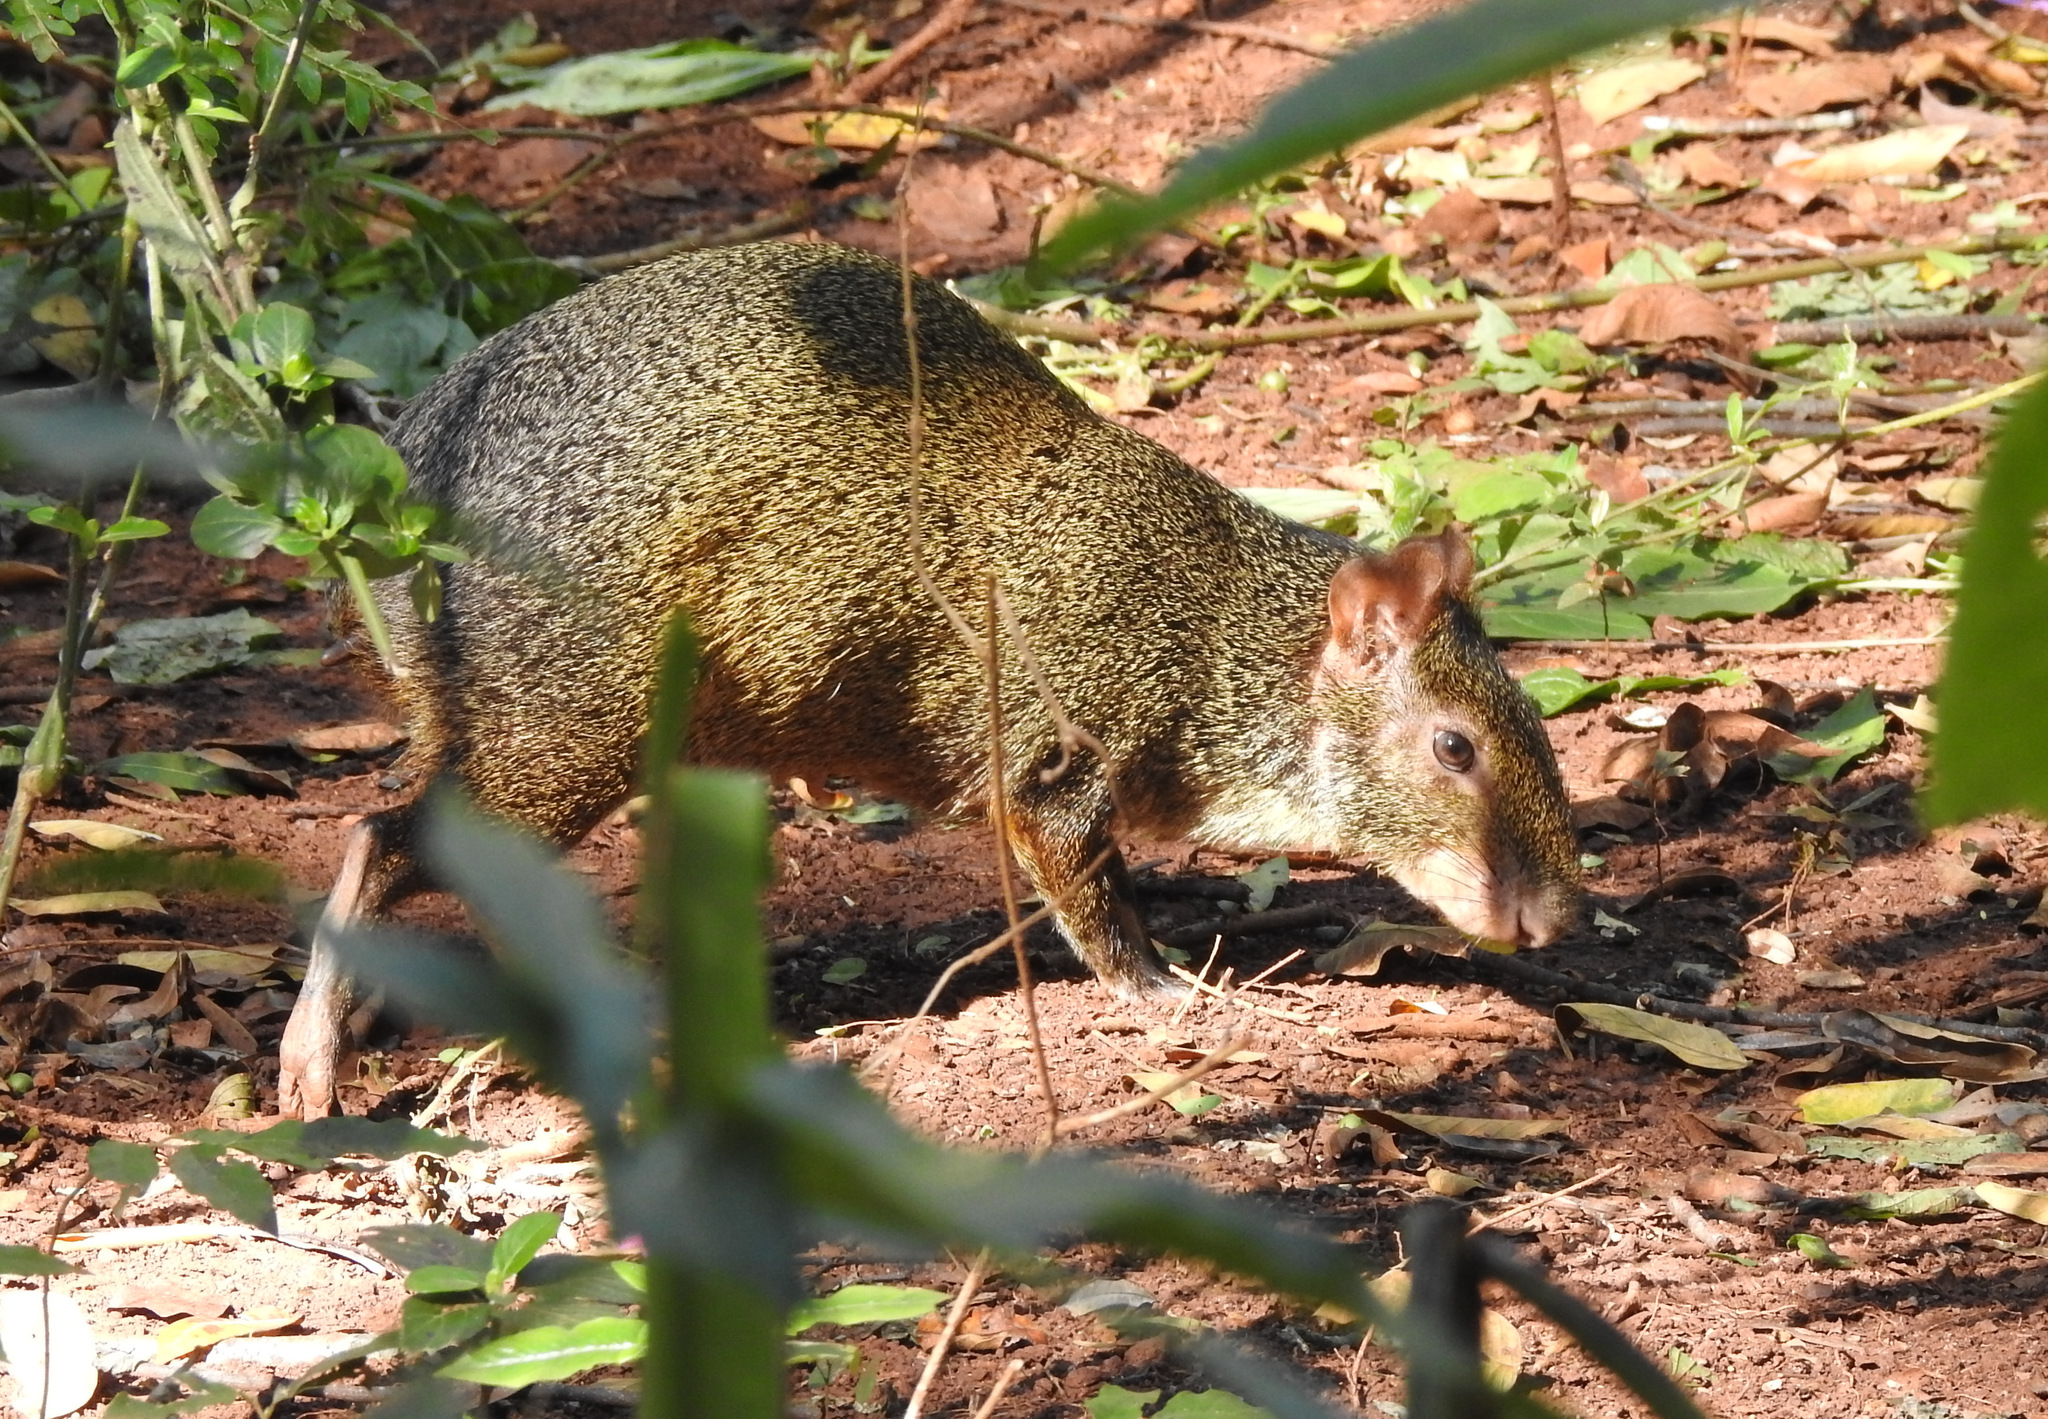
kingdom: Animalia
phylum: Chordata
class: Mammalia
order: Rodentia
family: Dasyproctidae
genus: Dasyprocta
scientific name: Dasyprocta azarae
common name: Azara's agouti
